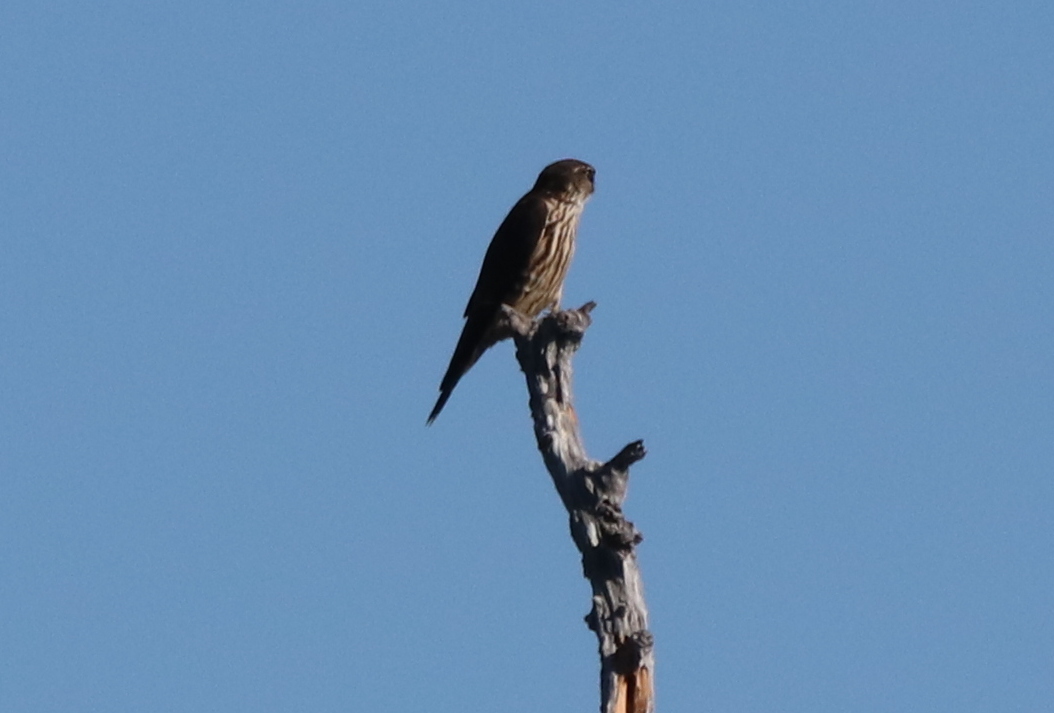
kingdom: Animalia
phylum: Chordata
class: Aves
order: Falconiformes
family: Falconidae
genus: Falco
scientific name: Falco columbarius
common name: Merlin
